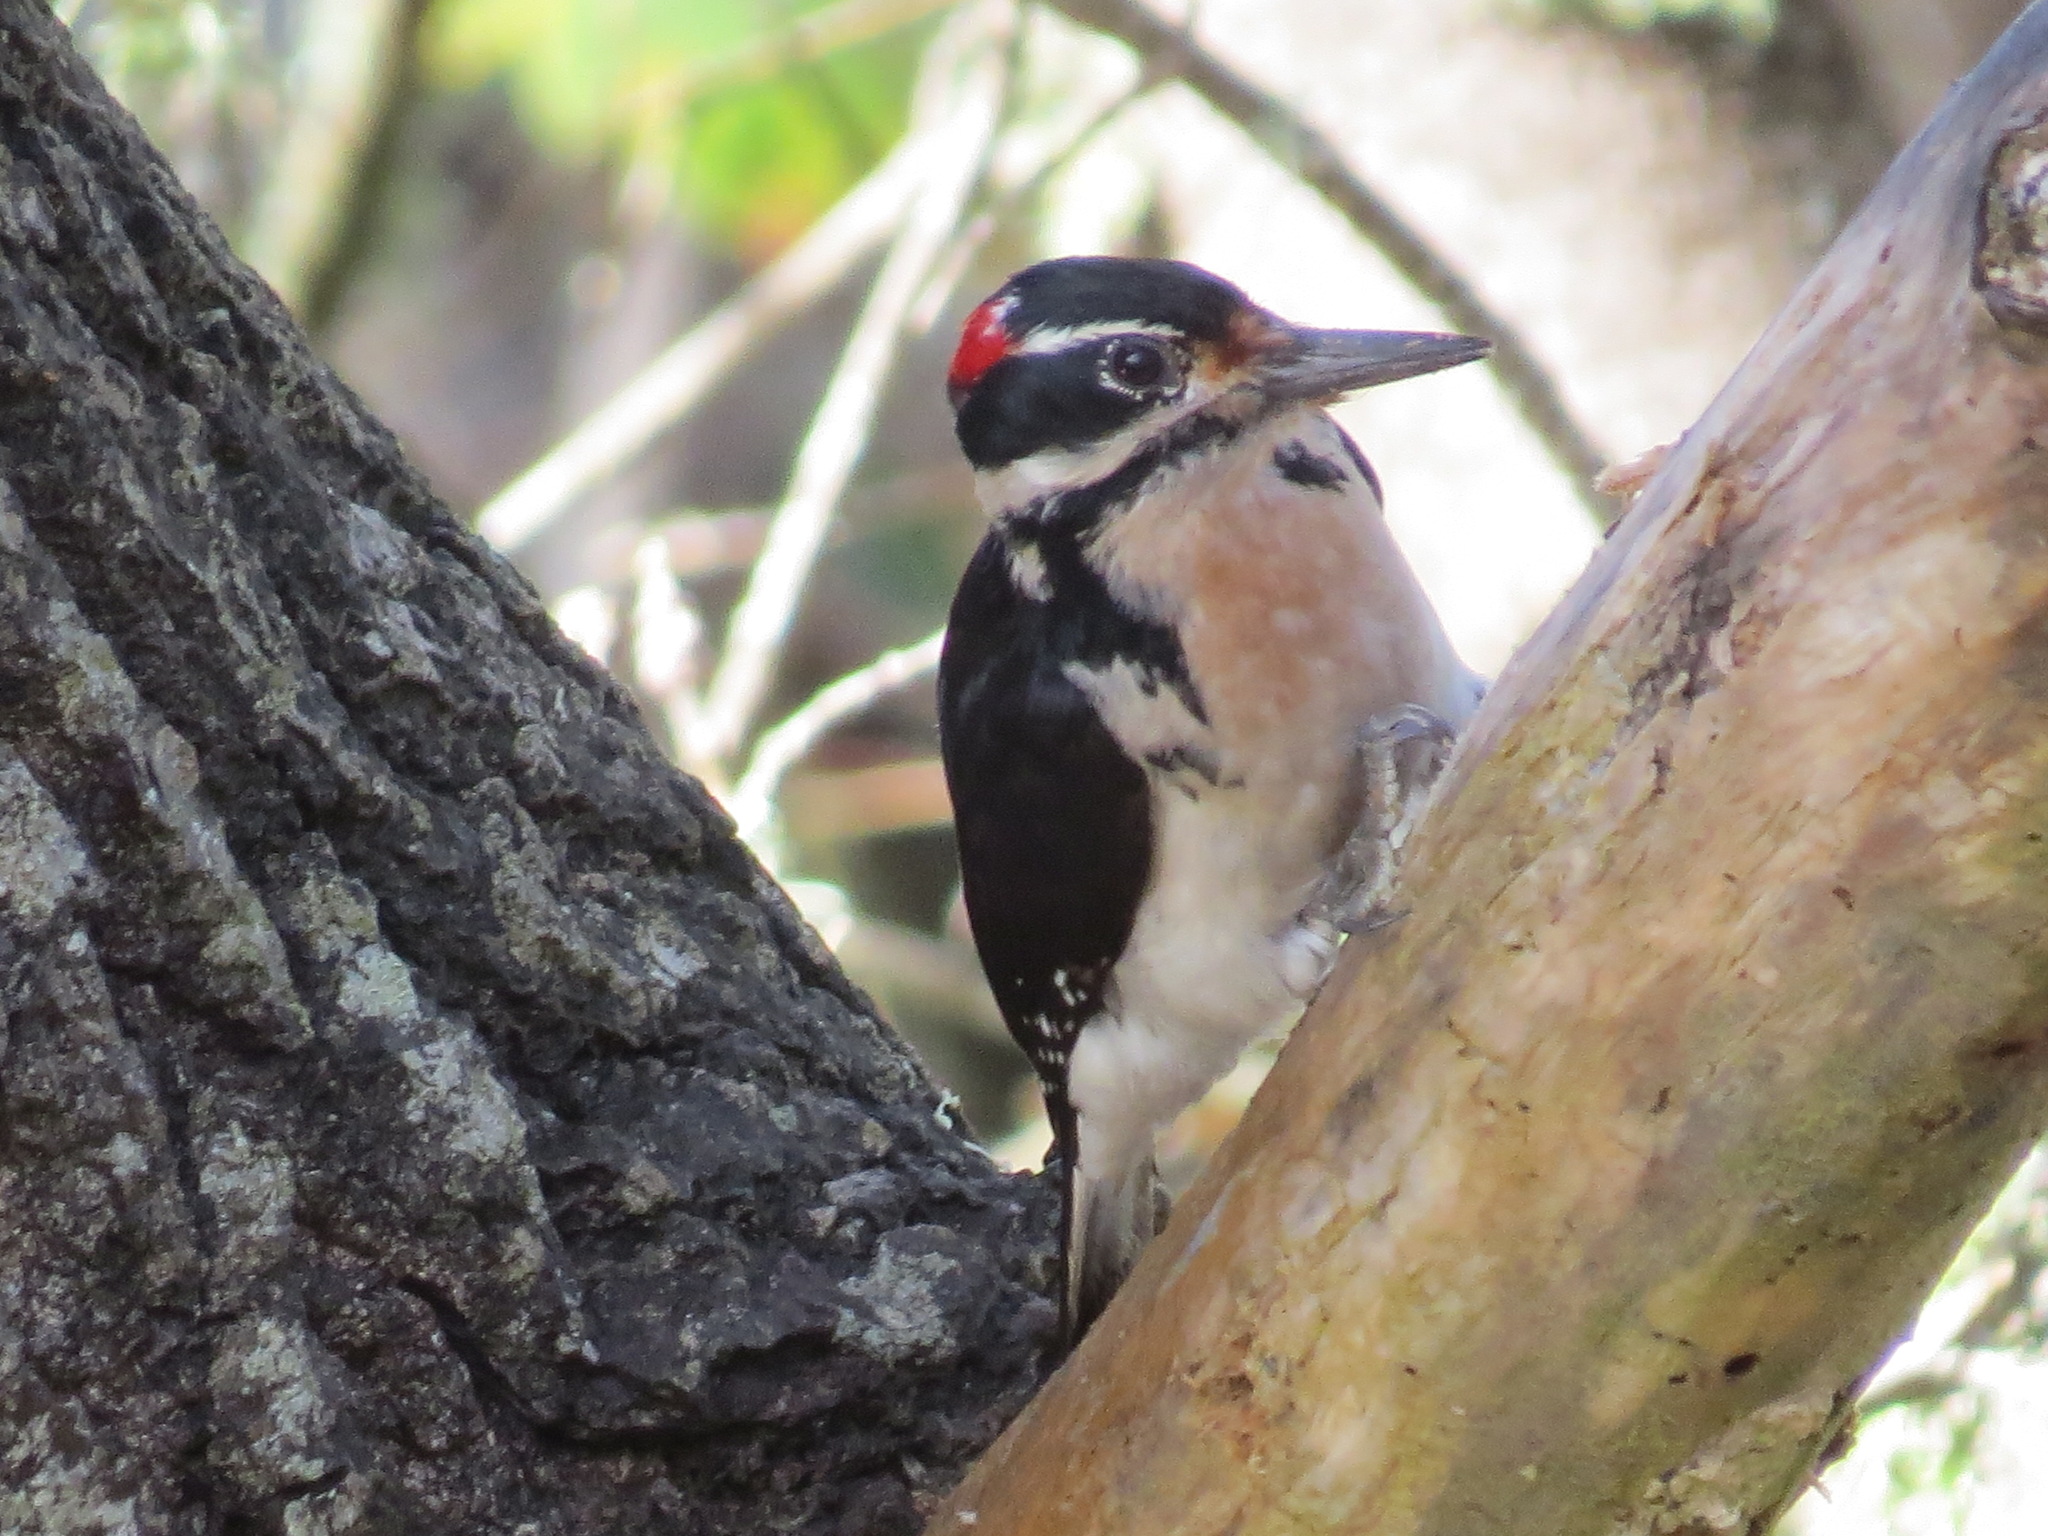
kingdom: Animalia
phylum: Chordata
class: Aves
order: Piciformes
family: Picidae
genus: Leuconotopicus
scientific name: Leuconotopicus villosus
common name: Hairy woodpecker
